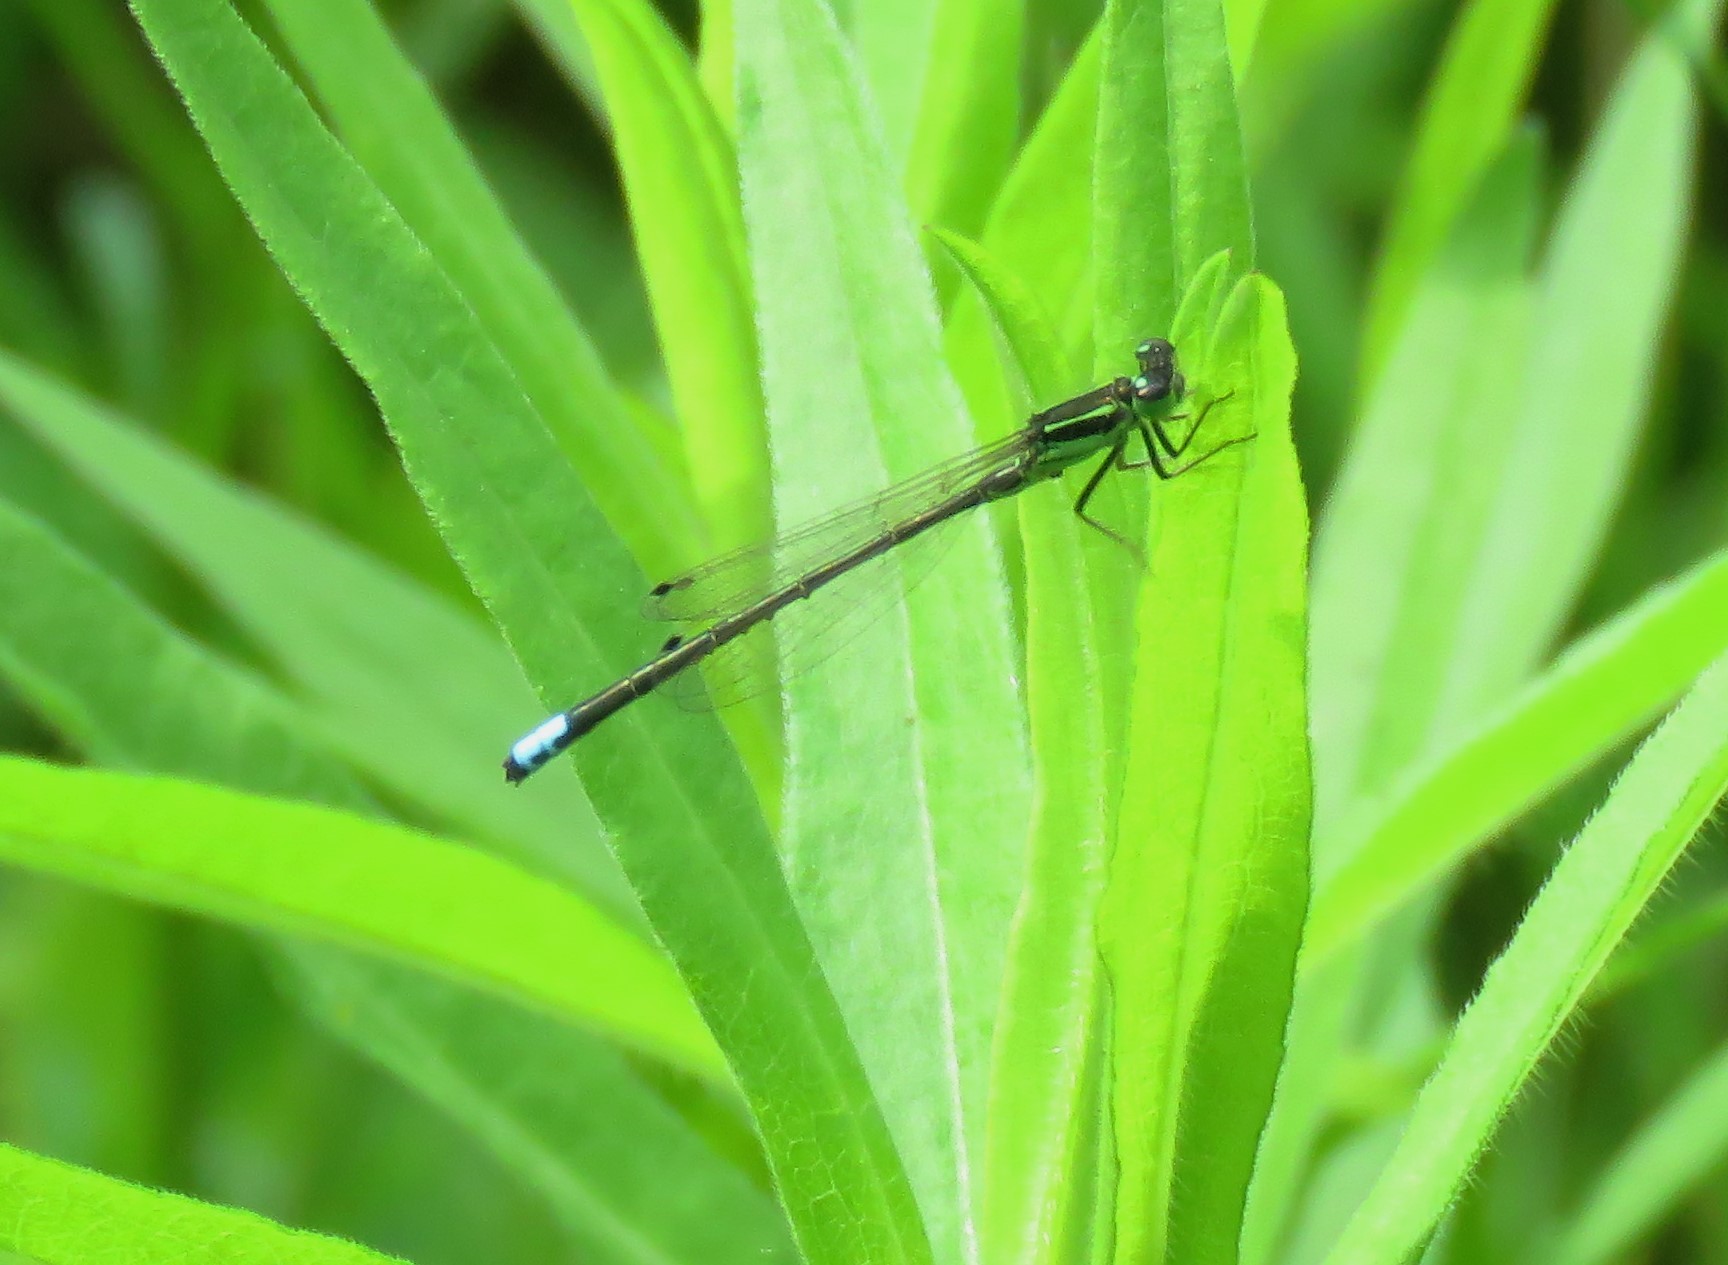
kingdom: Animalia
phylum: Arthropoda
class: Insecta
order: Odonata
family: Coenagrionidae
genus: Ischnura
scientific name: Ischnura verticalis
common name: Eastern forktail
